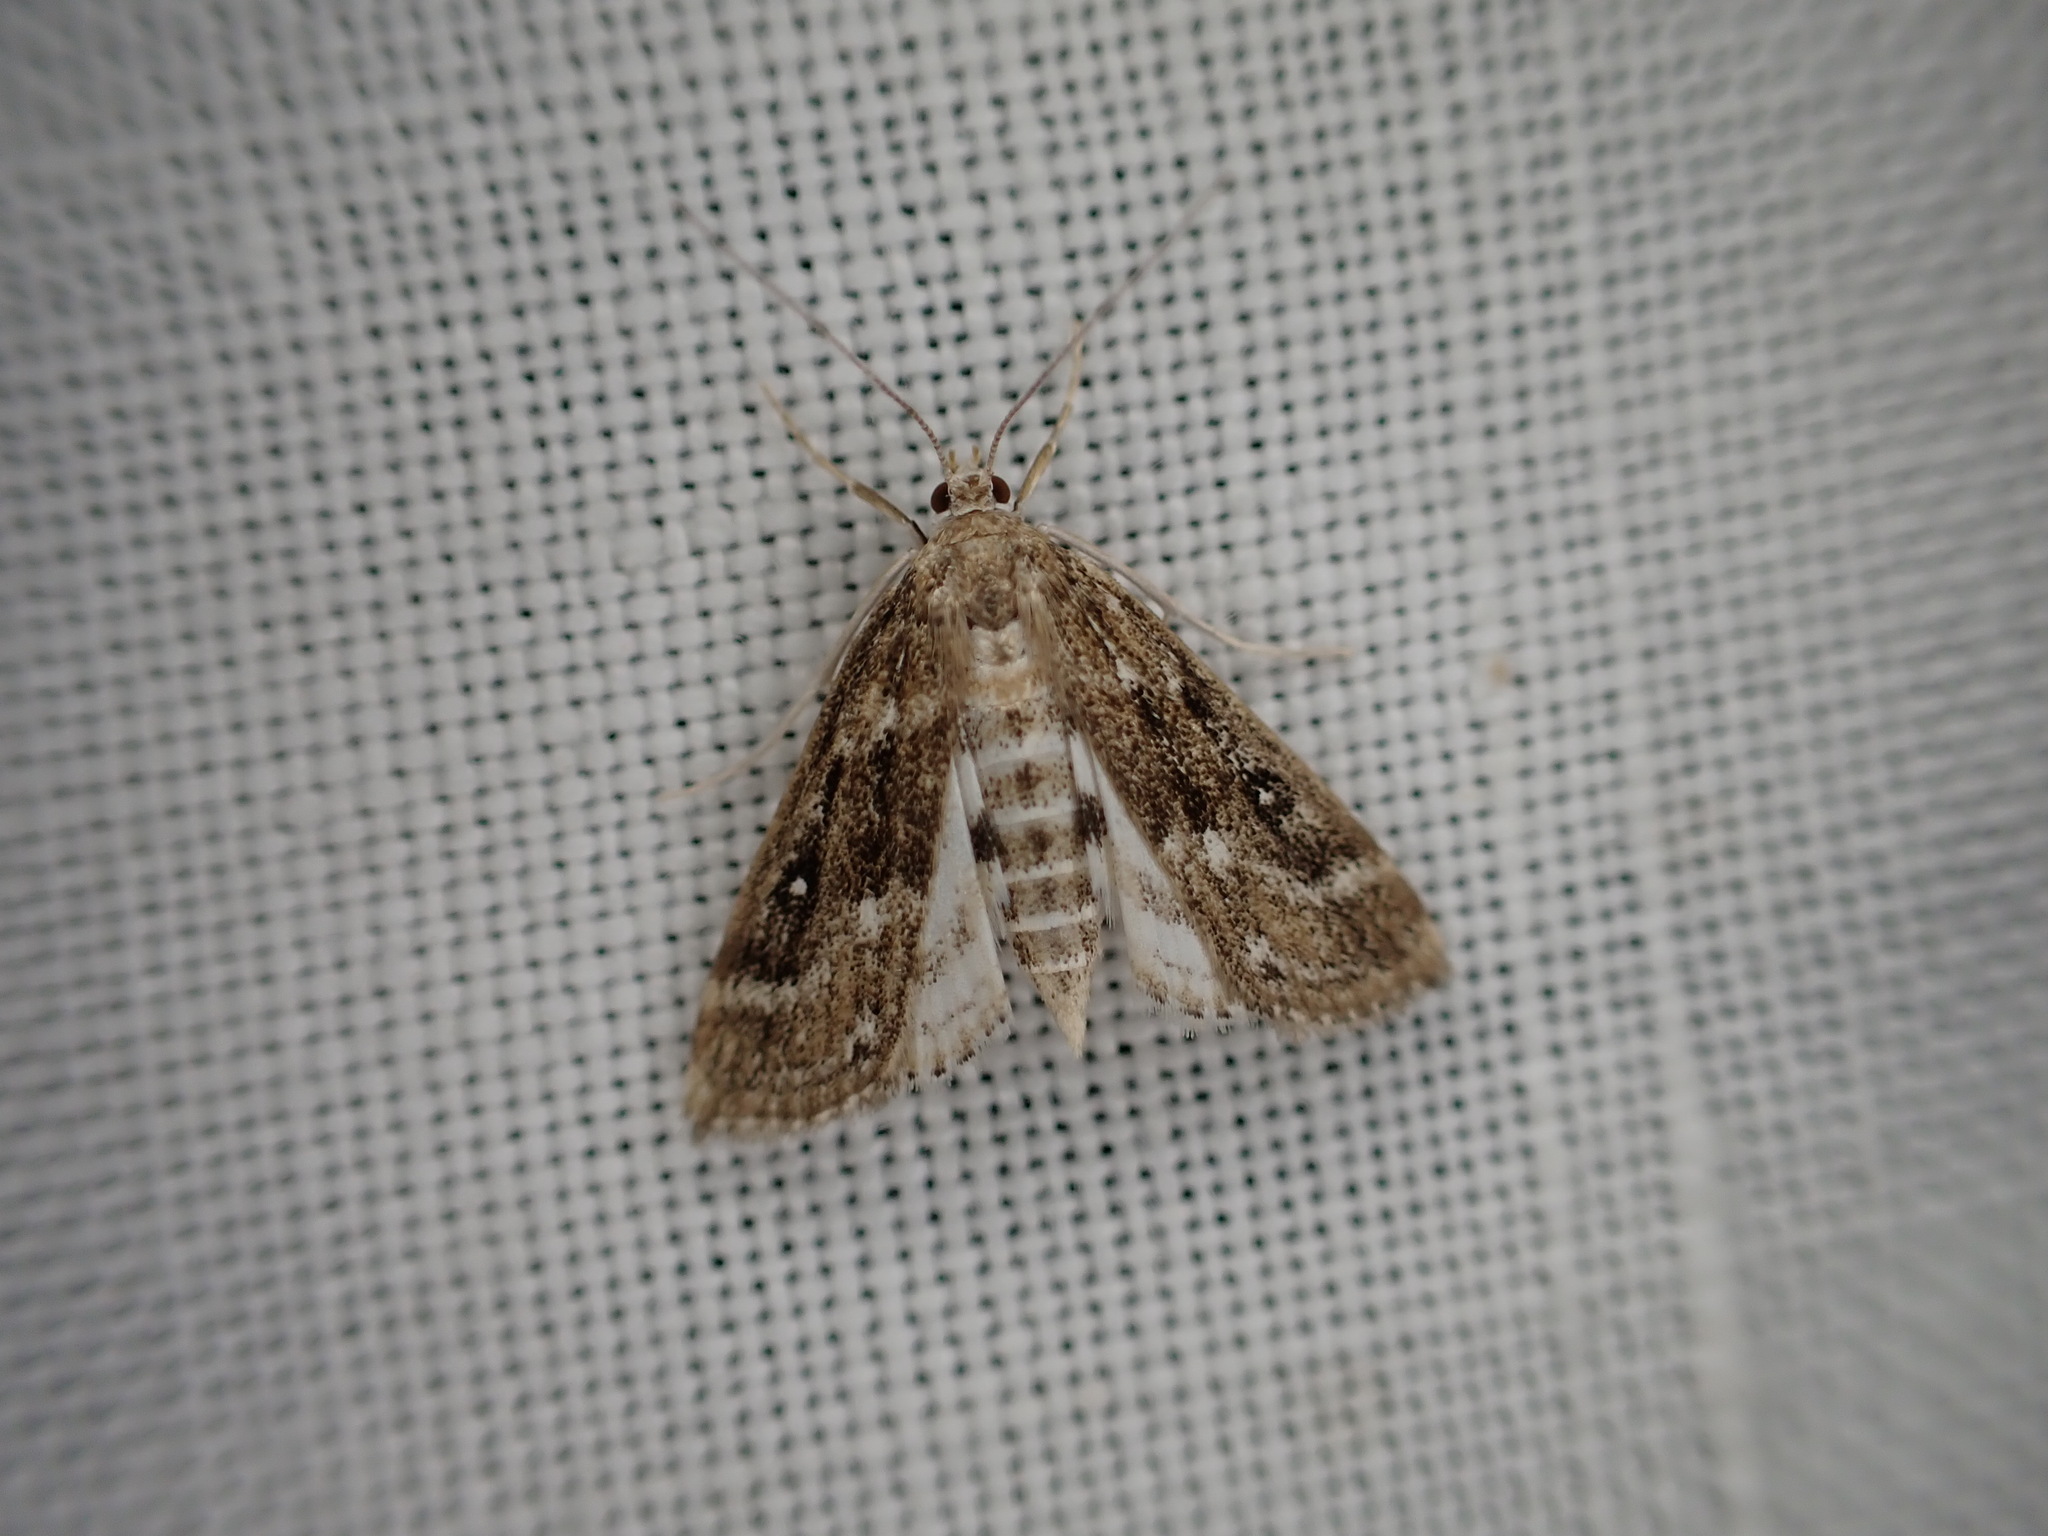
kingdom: Animalia
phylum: Arthropoda
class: Insecta
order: Lepidoptera
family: Crambidae
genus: Parapoynx
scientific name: Parapoynx stratiotata
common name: Ringed china-mark
